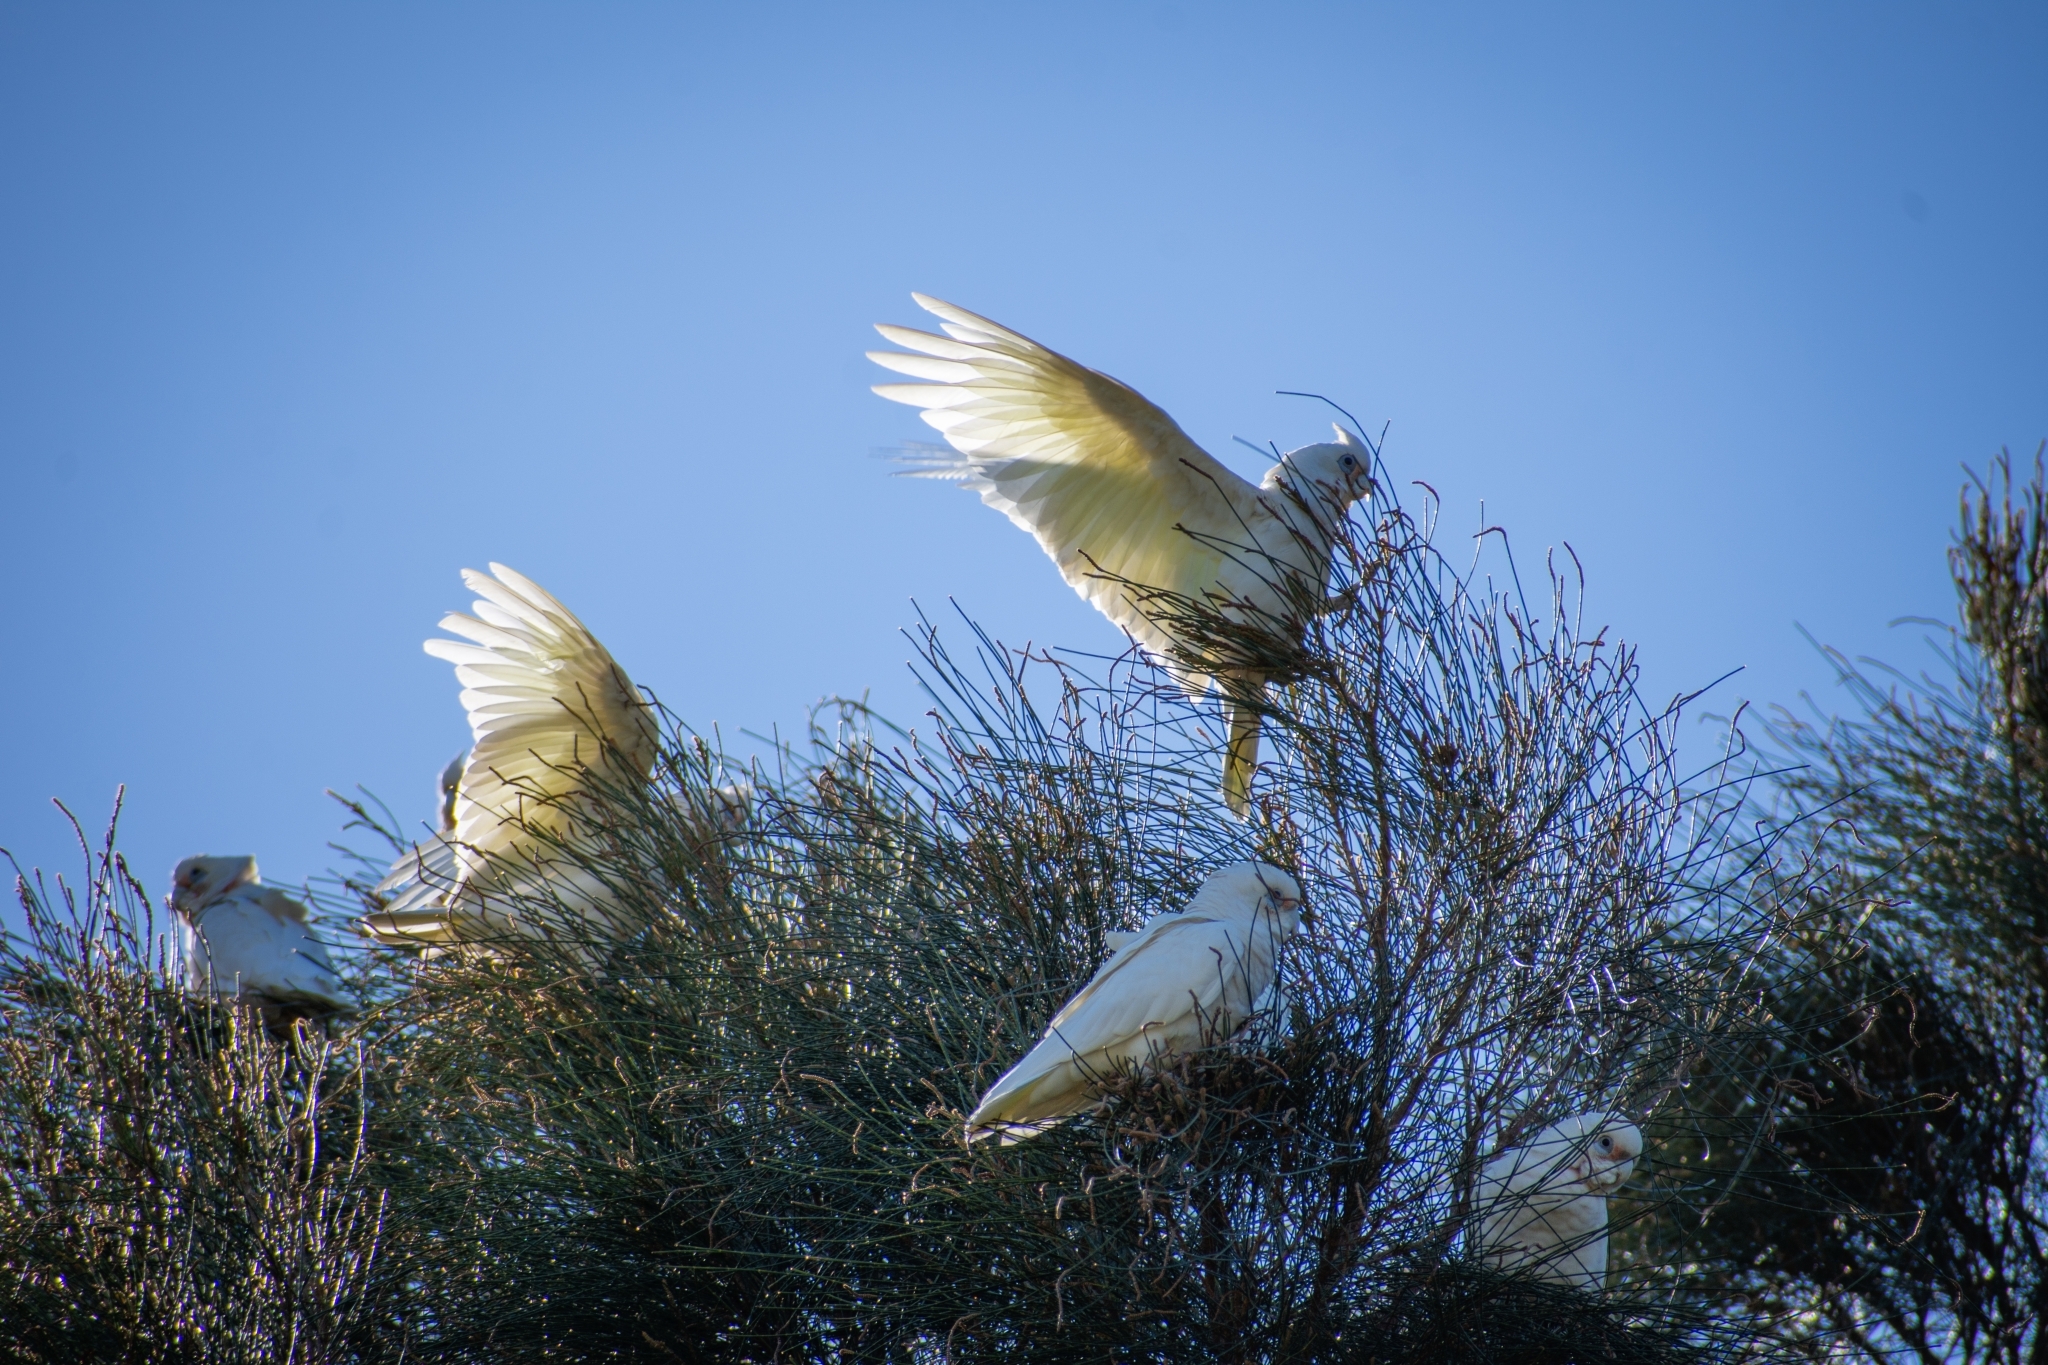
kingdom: Animalia
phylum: Chordata
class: Aves
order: Psittaciformes
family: Psittacidae
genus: Cacatua
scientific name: Cacatua sanguinea
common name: Little corella
